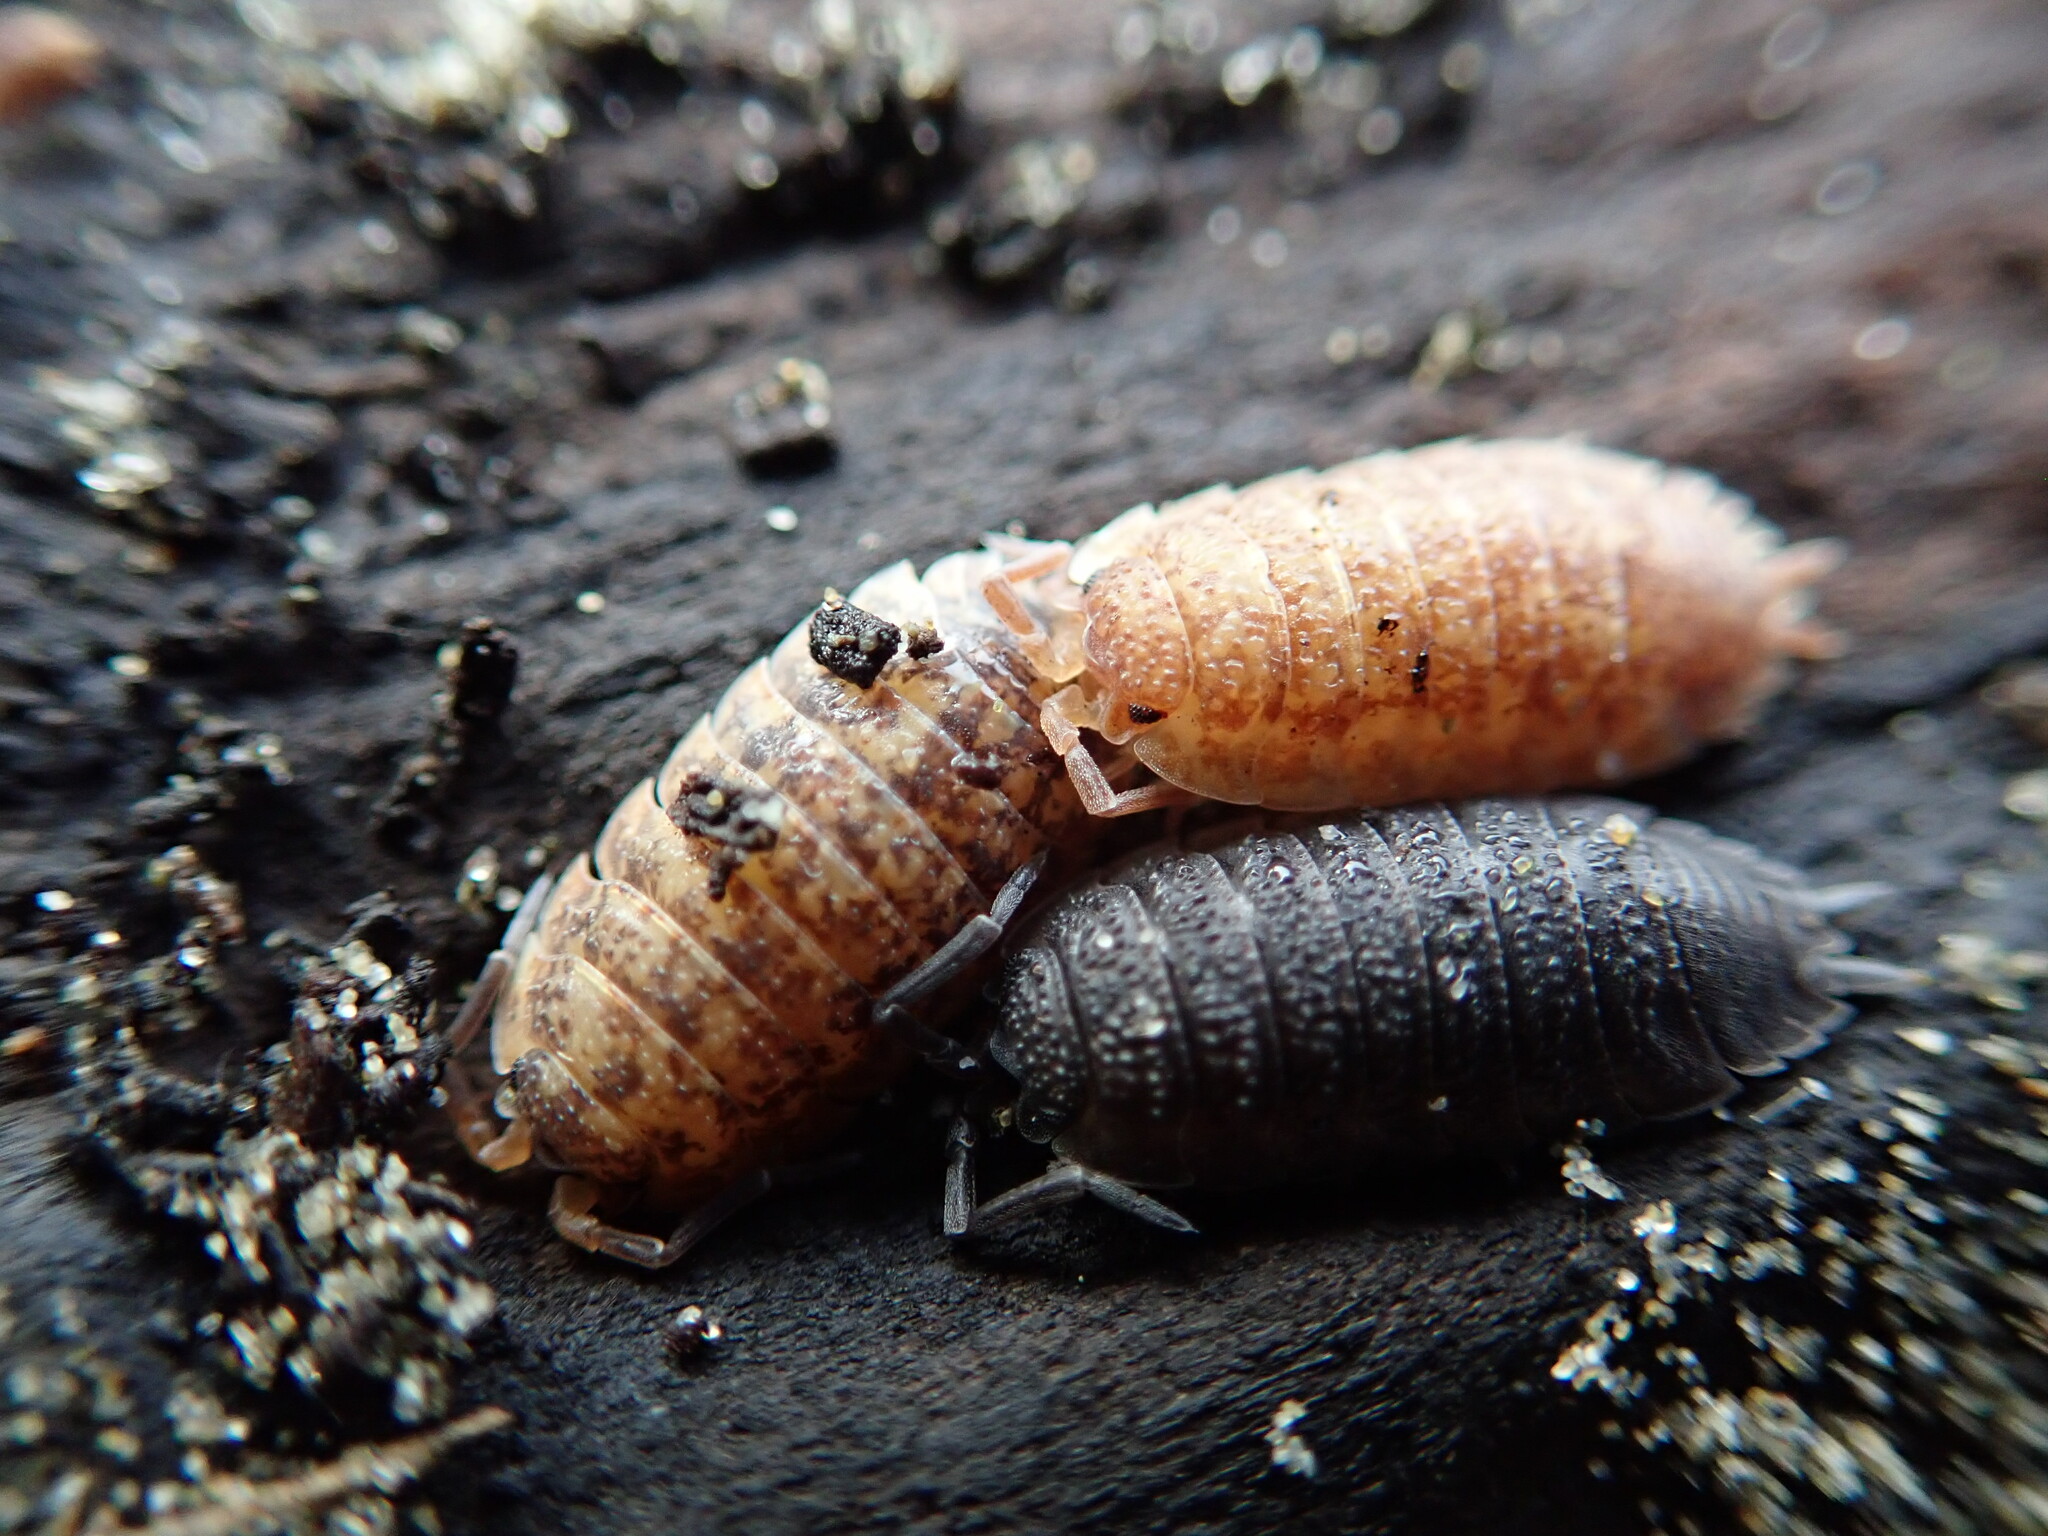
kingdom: Animalia
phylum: Arthropoda
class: Malacostraca
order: Isopoda
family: Porcellionidae
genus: Porcellio
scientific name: Porcellio scaber
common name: Common rough woodlouse
